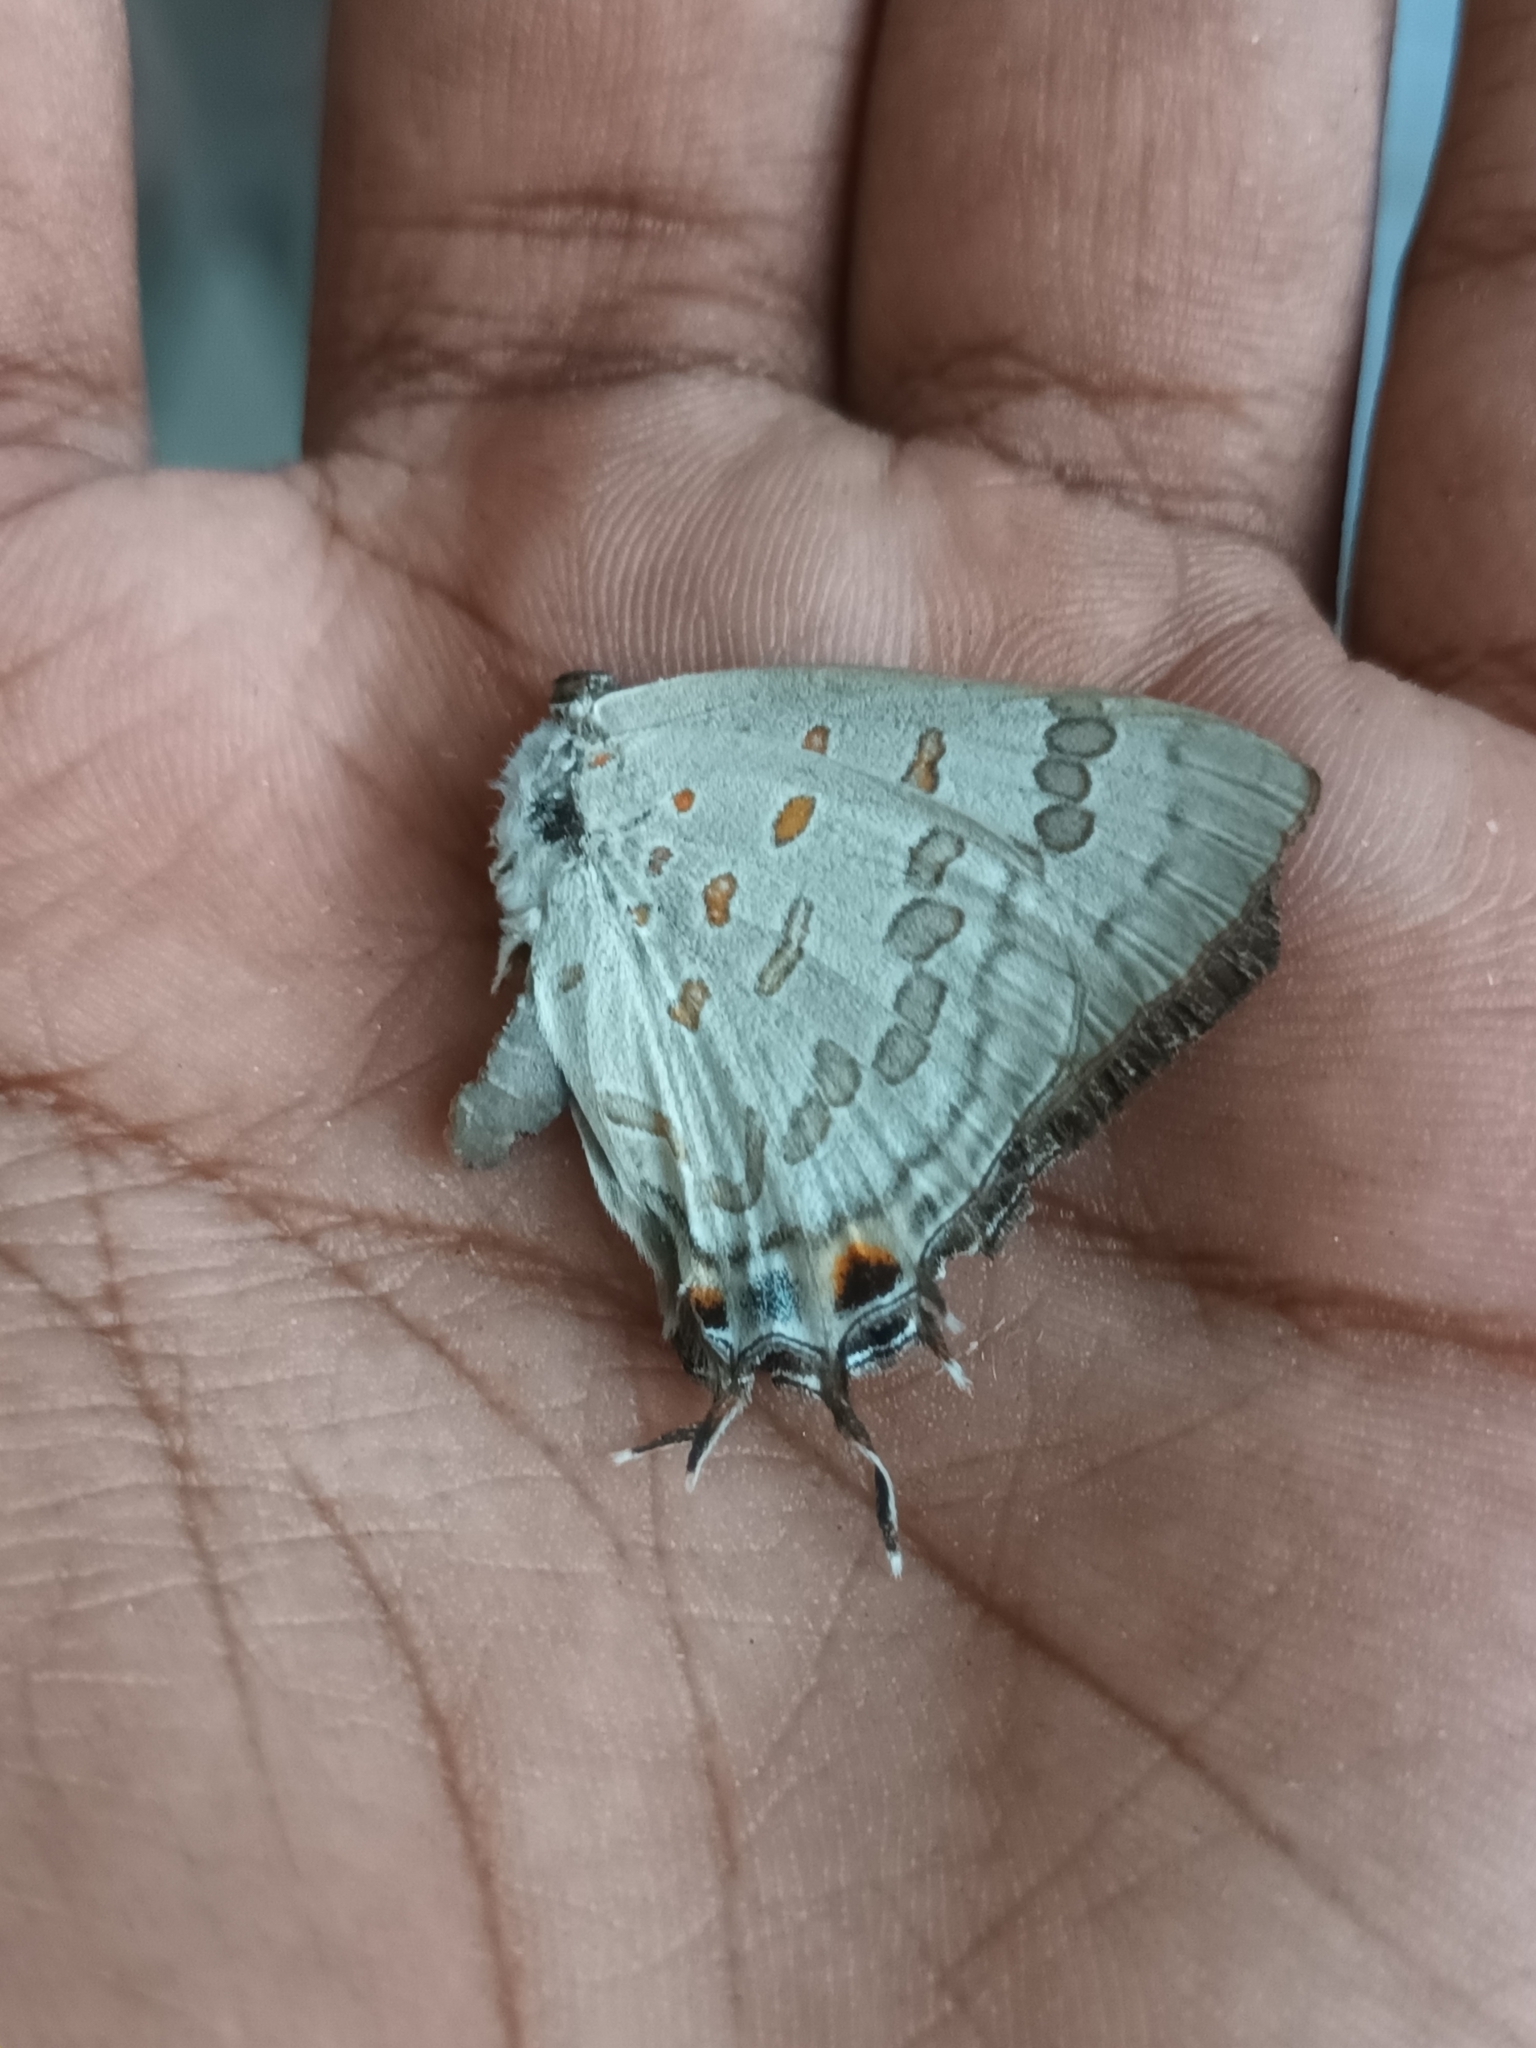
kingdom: Animalia
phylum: Arthropoda
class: Insecta
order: Lepidoptera
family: Lycaenidae
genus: Zesius
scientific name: Zesius chrysomallus
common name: Redspot
